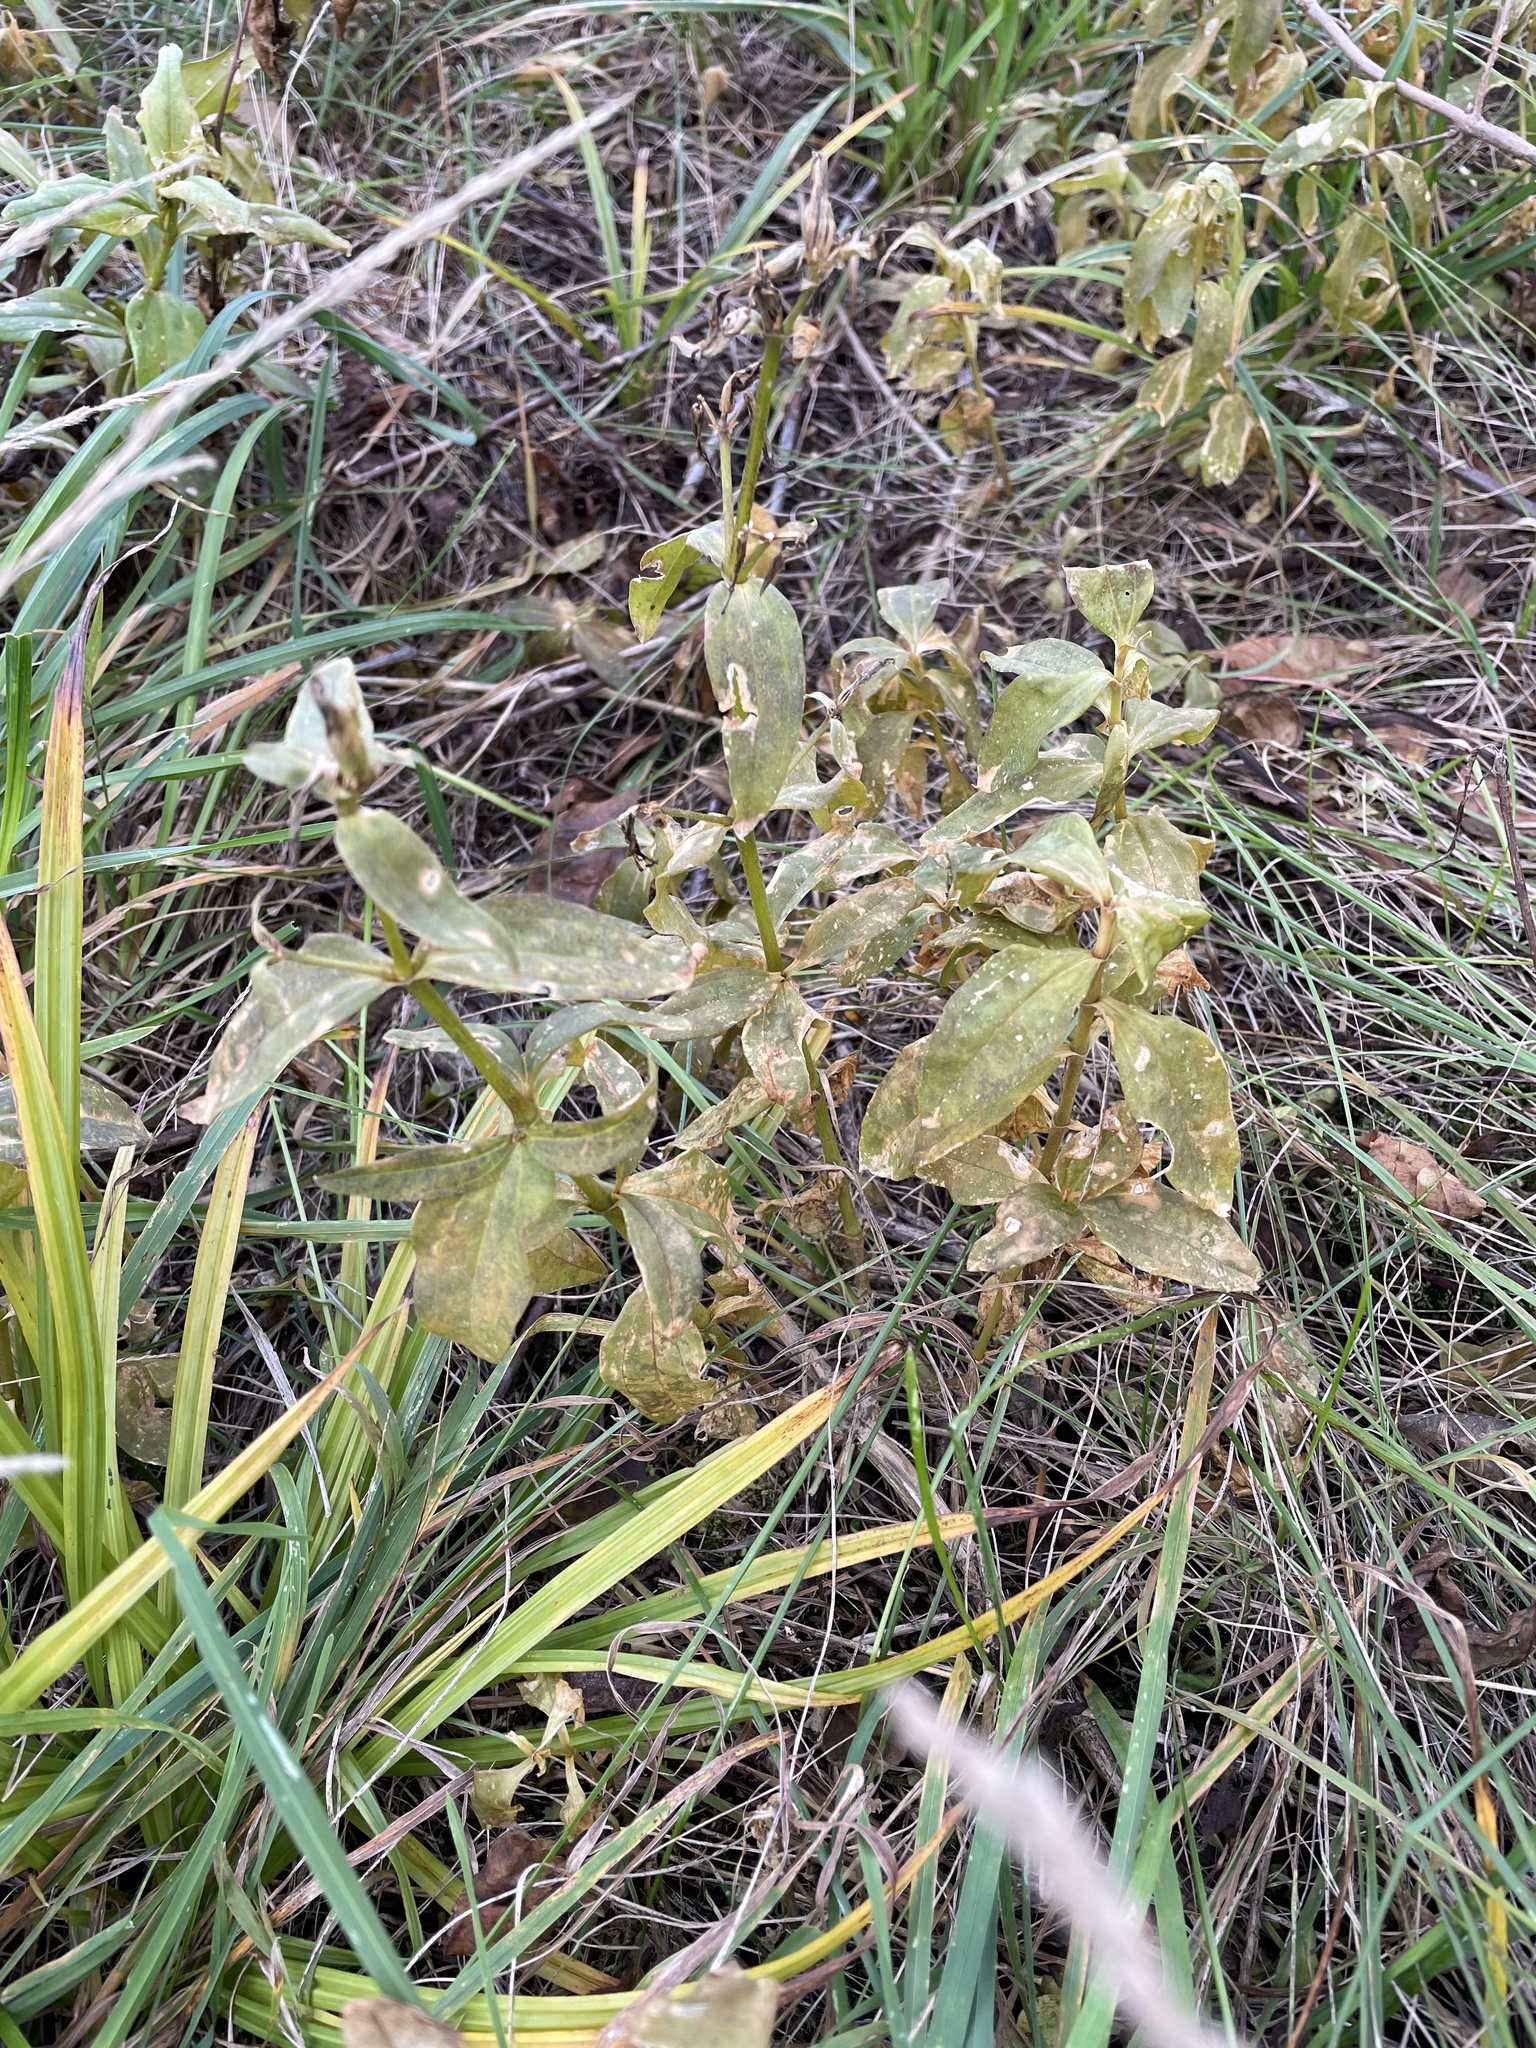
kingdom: Plantae
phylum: Tracheophyta
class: Magnoliopsida
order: Caryophyllales
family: Caryophyllaceae
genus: Saponaria
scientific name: Saponaria officinalis
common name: Soapwort
